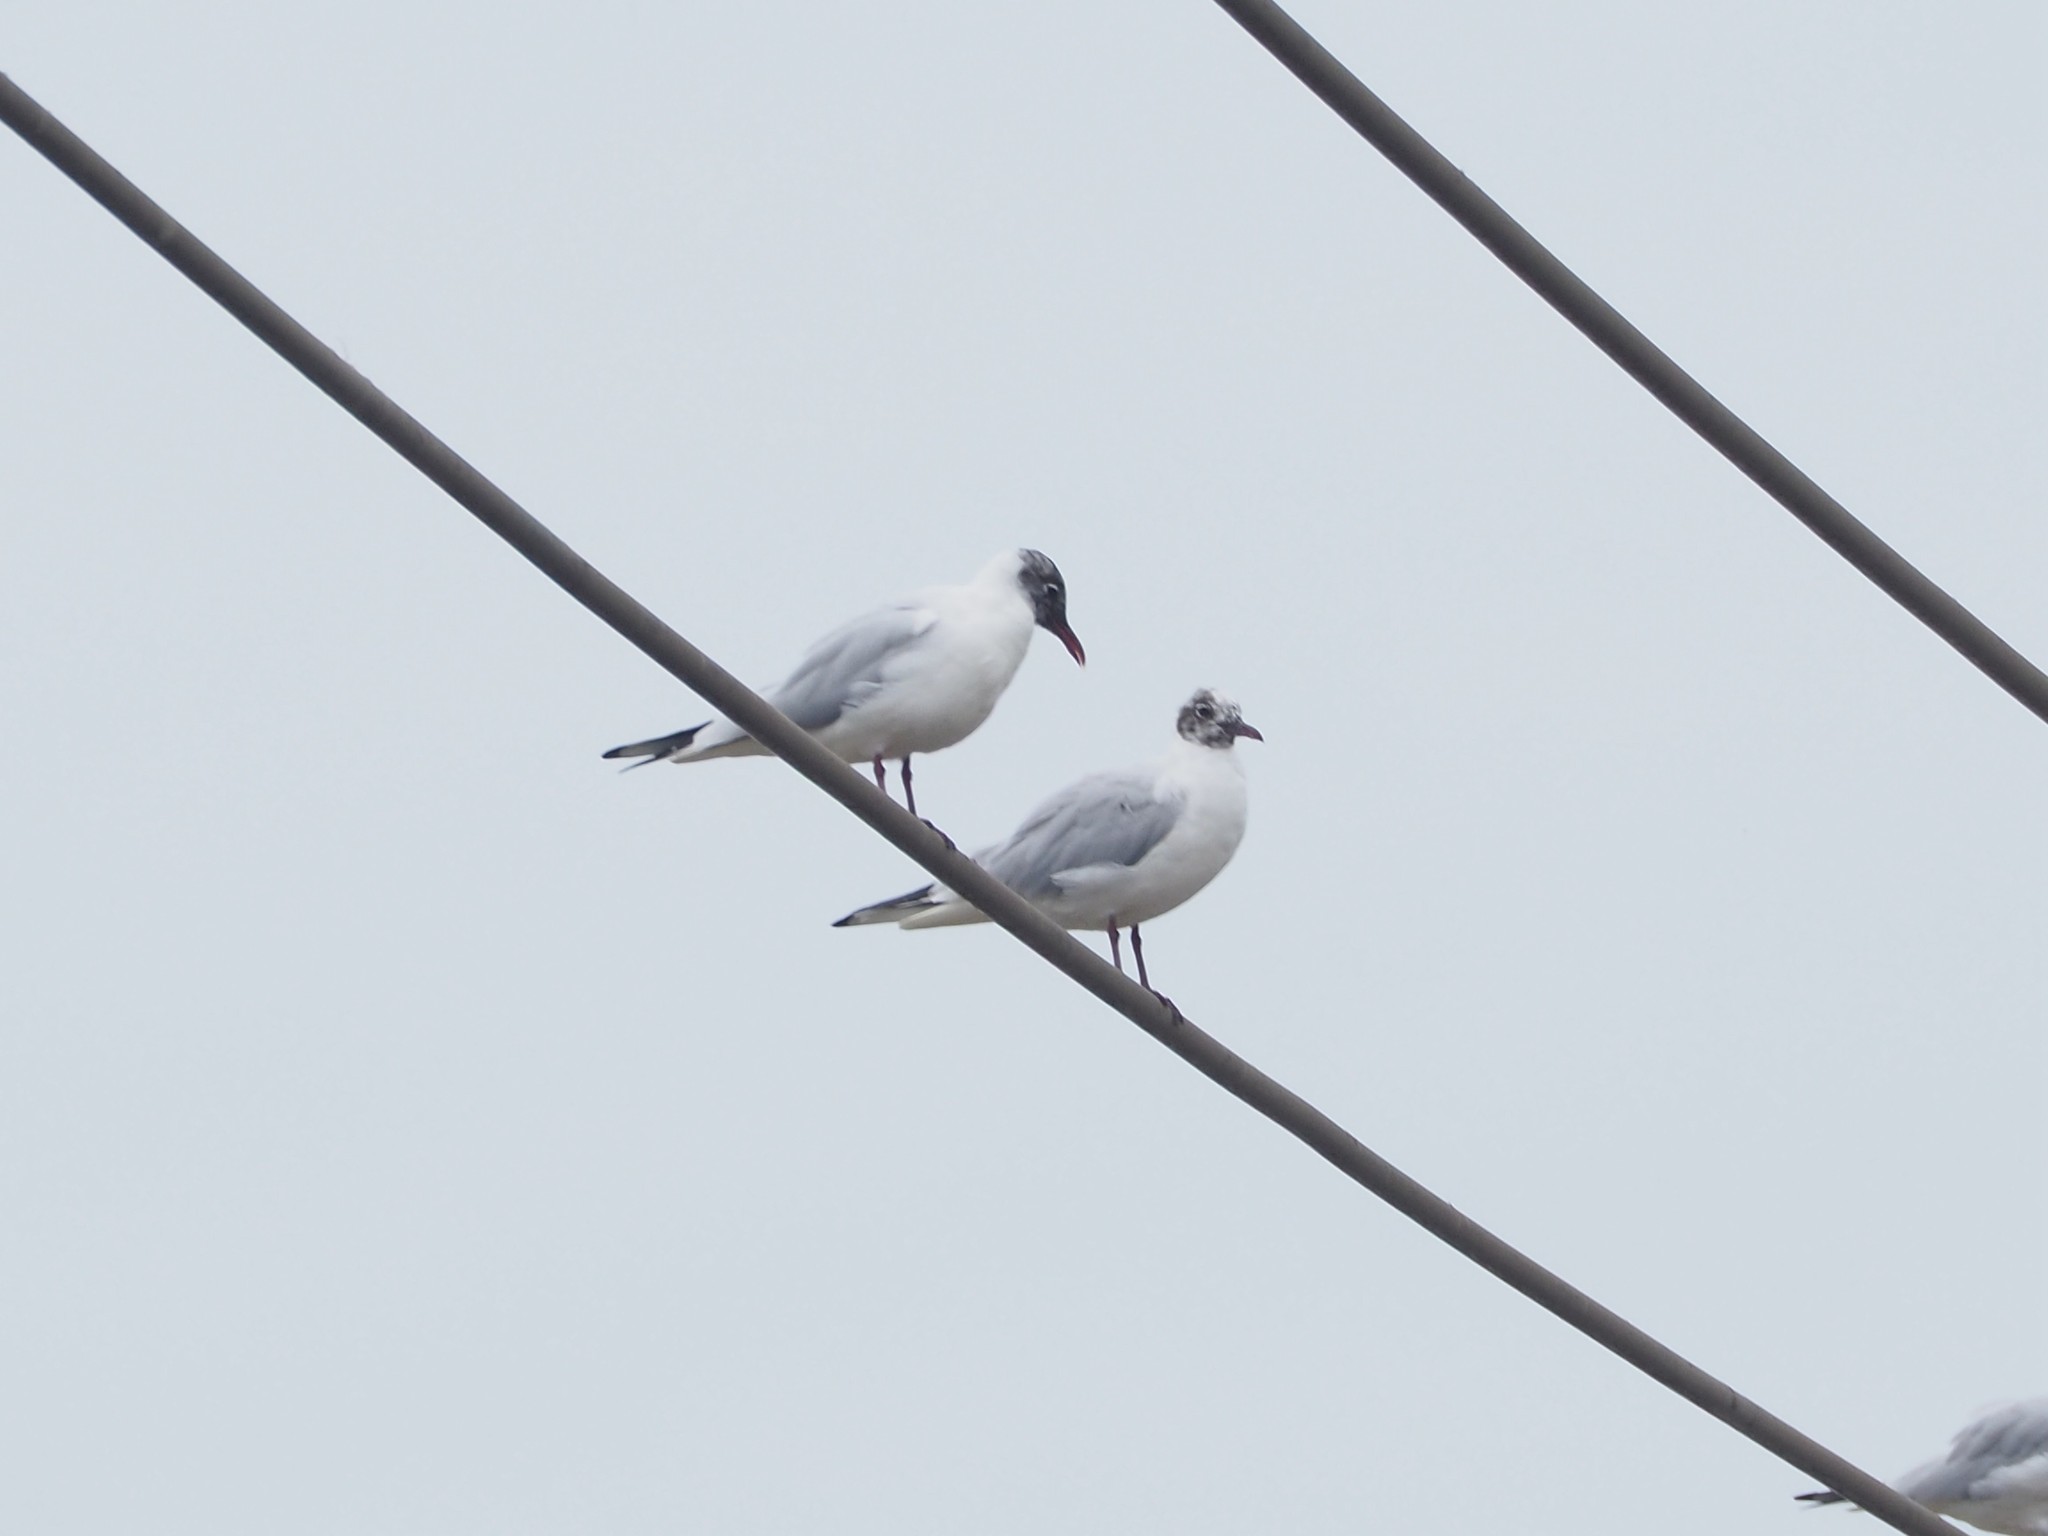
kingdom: Animalia
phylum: Chordata
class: Aves
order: Charadriiformes
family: Laridae
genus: Chroicocephalus
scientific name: Chroicocephalus ridibundus
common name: Black-headed gull
